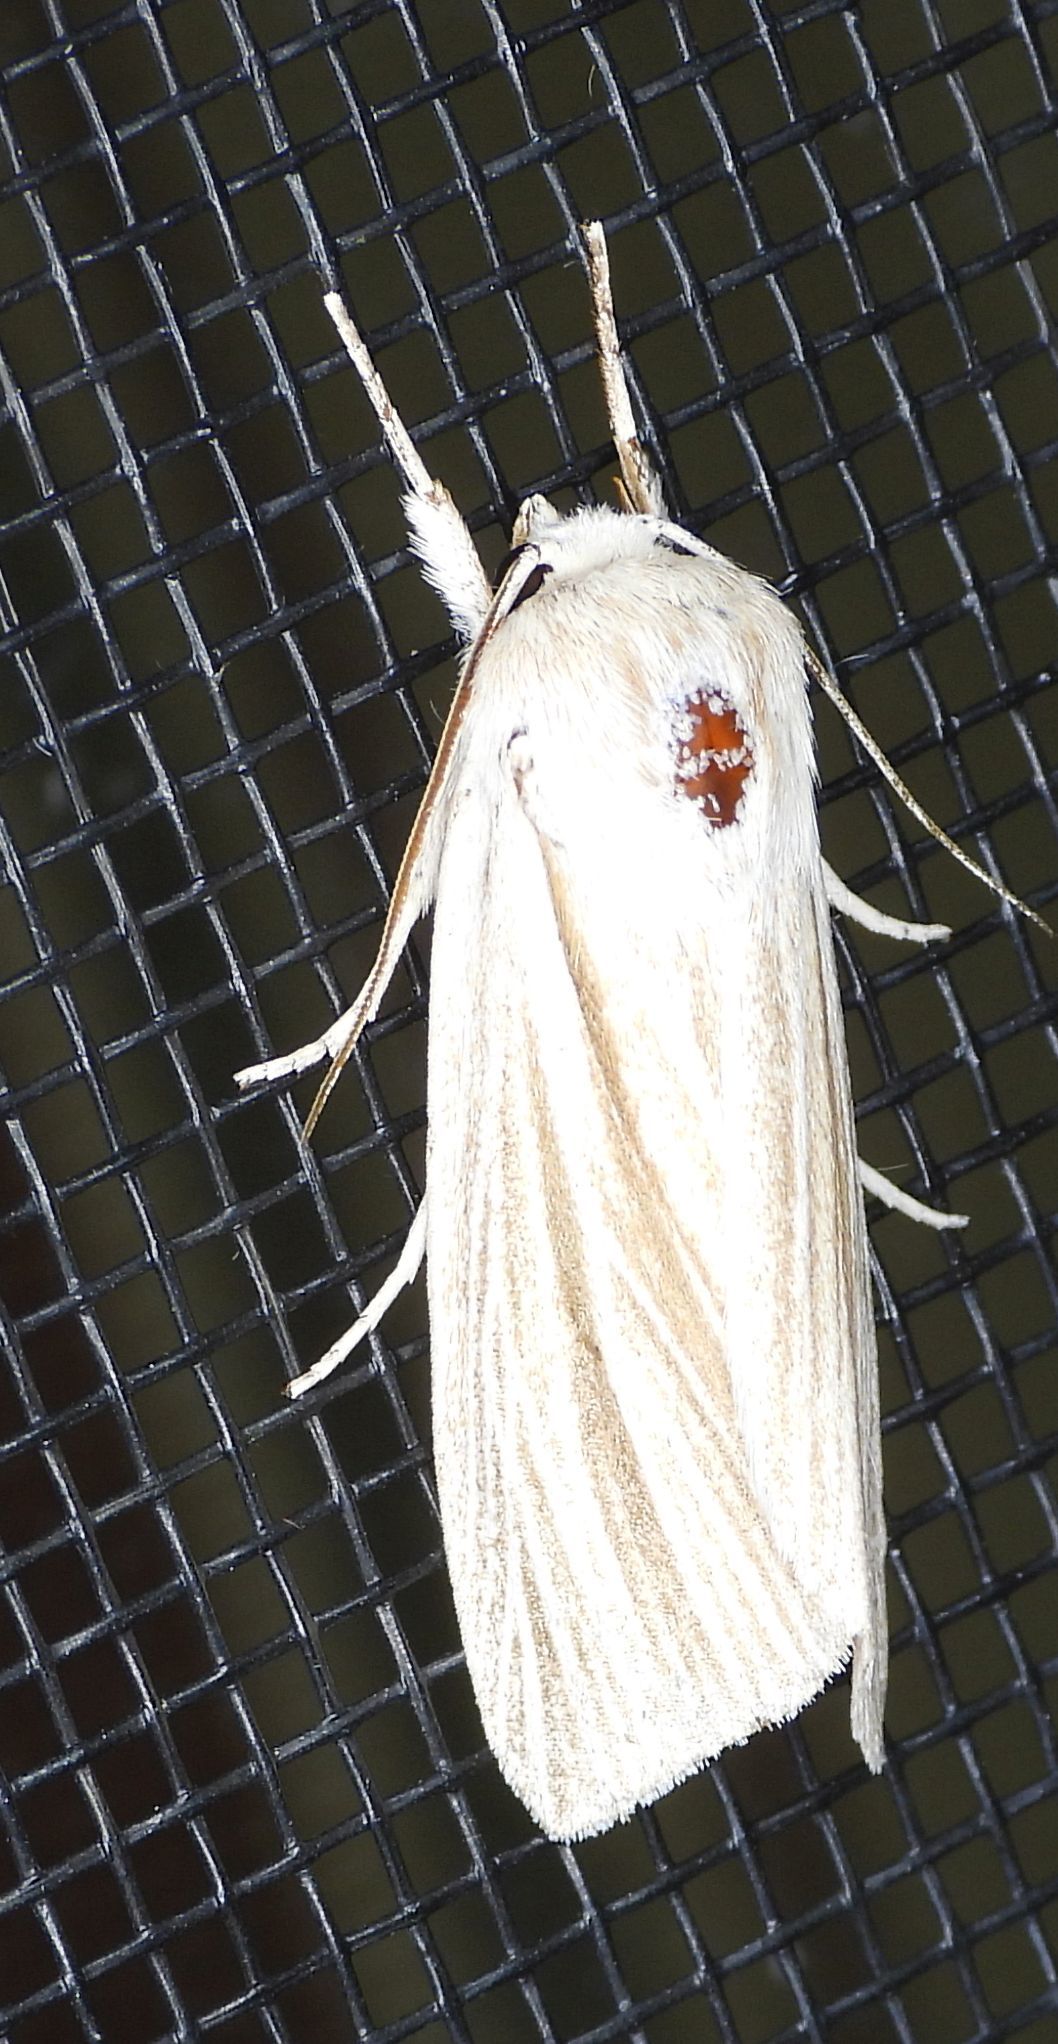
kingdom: Animalia
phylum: Arthropoda
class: Insecta
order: Lepidoptera
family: Noctuidae
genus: Acronicta
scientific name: Acronicta insularis
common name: Henry's marsh moth
